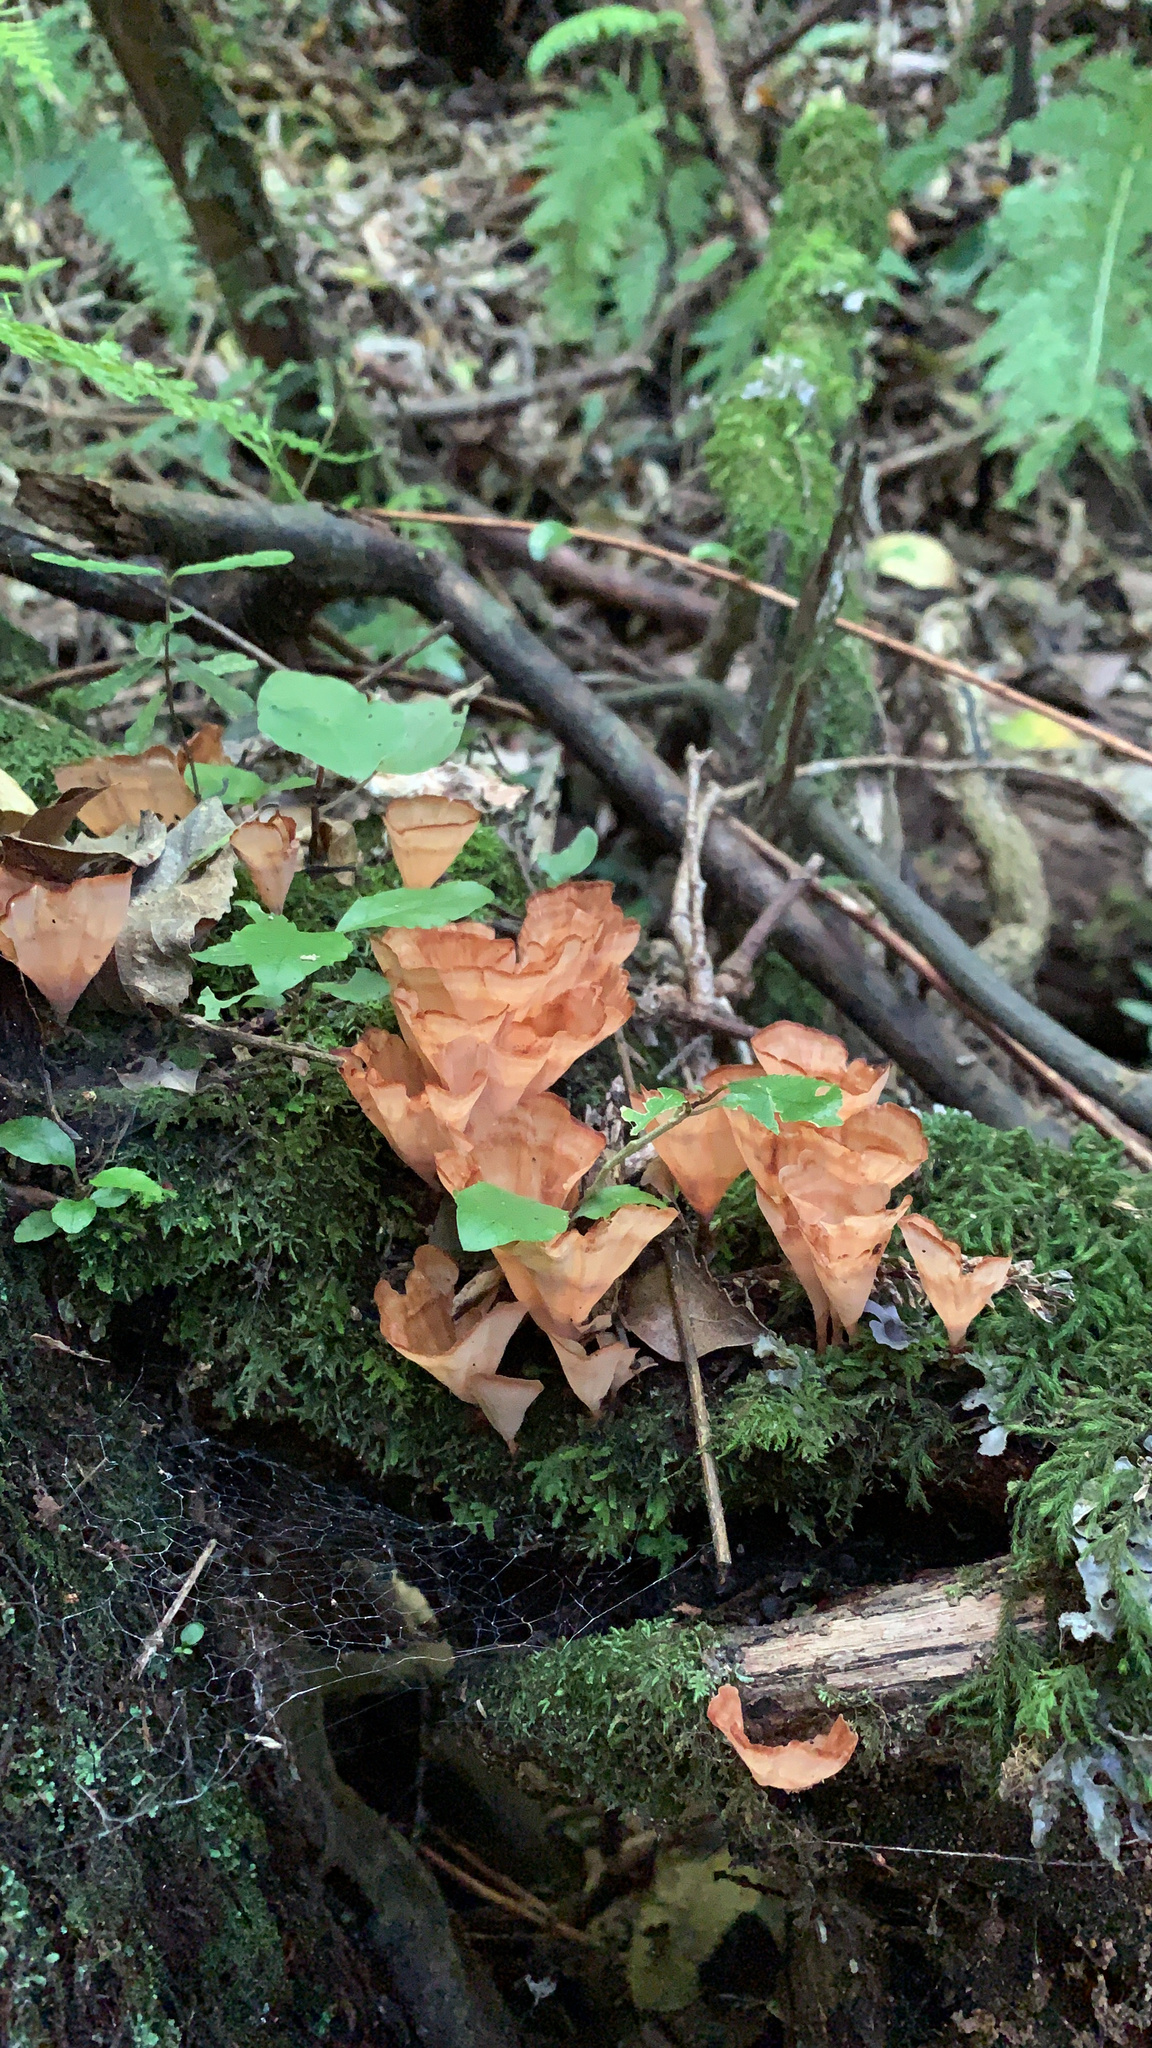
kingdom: Fungi
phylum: Basidiomycota
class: Agaricomycetes
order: Polyporales
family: Podoscyphaceae
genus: Podoscypha
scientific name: Podoscypha petalodes
